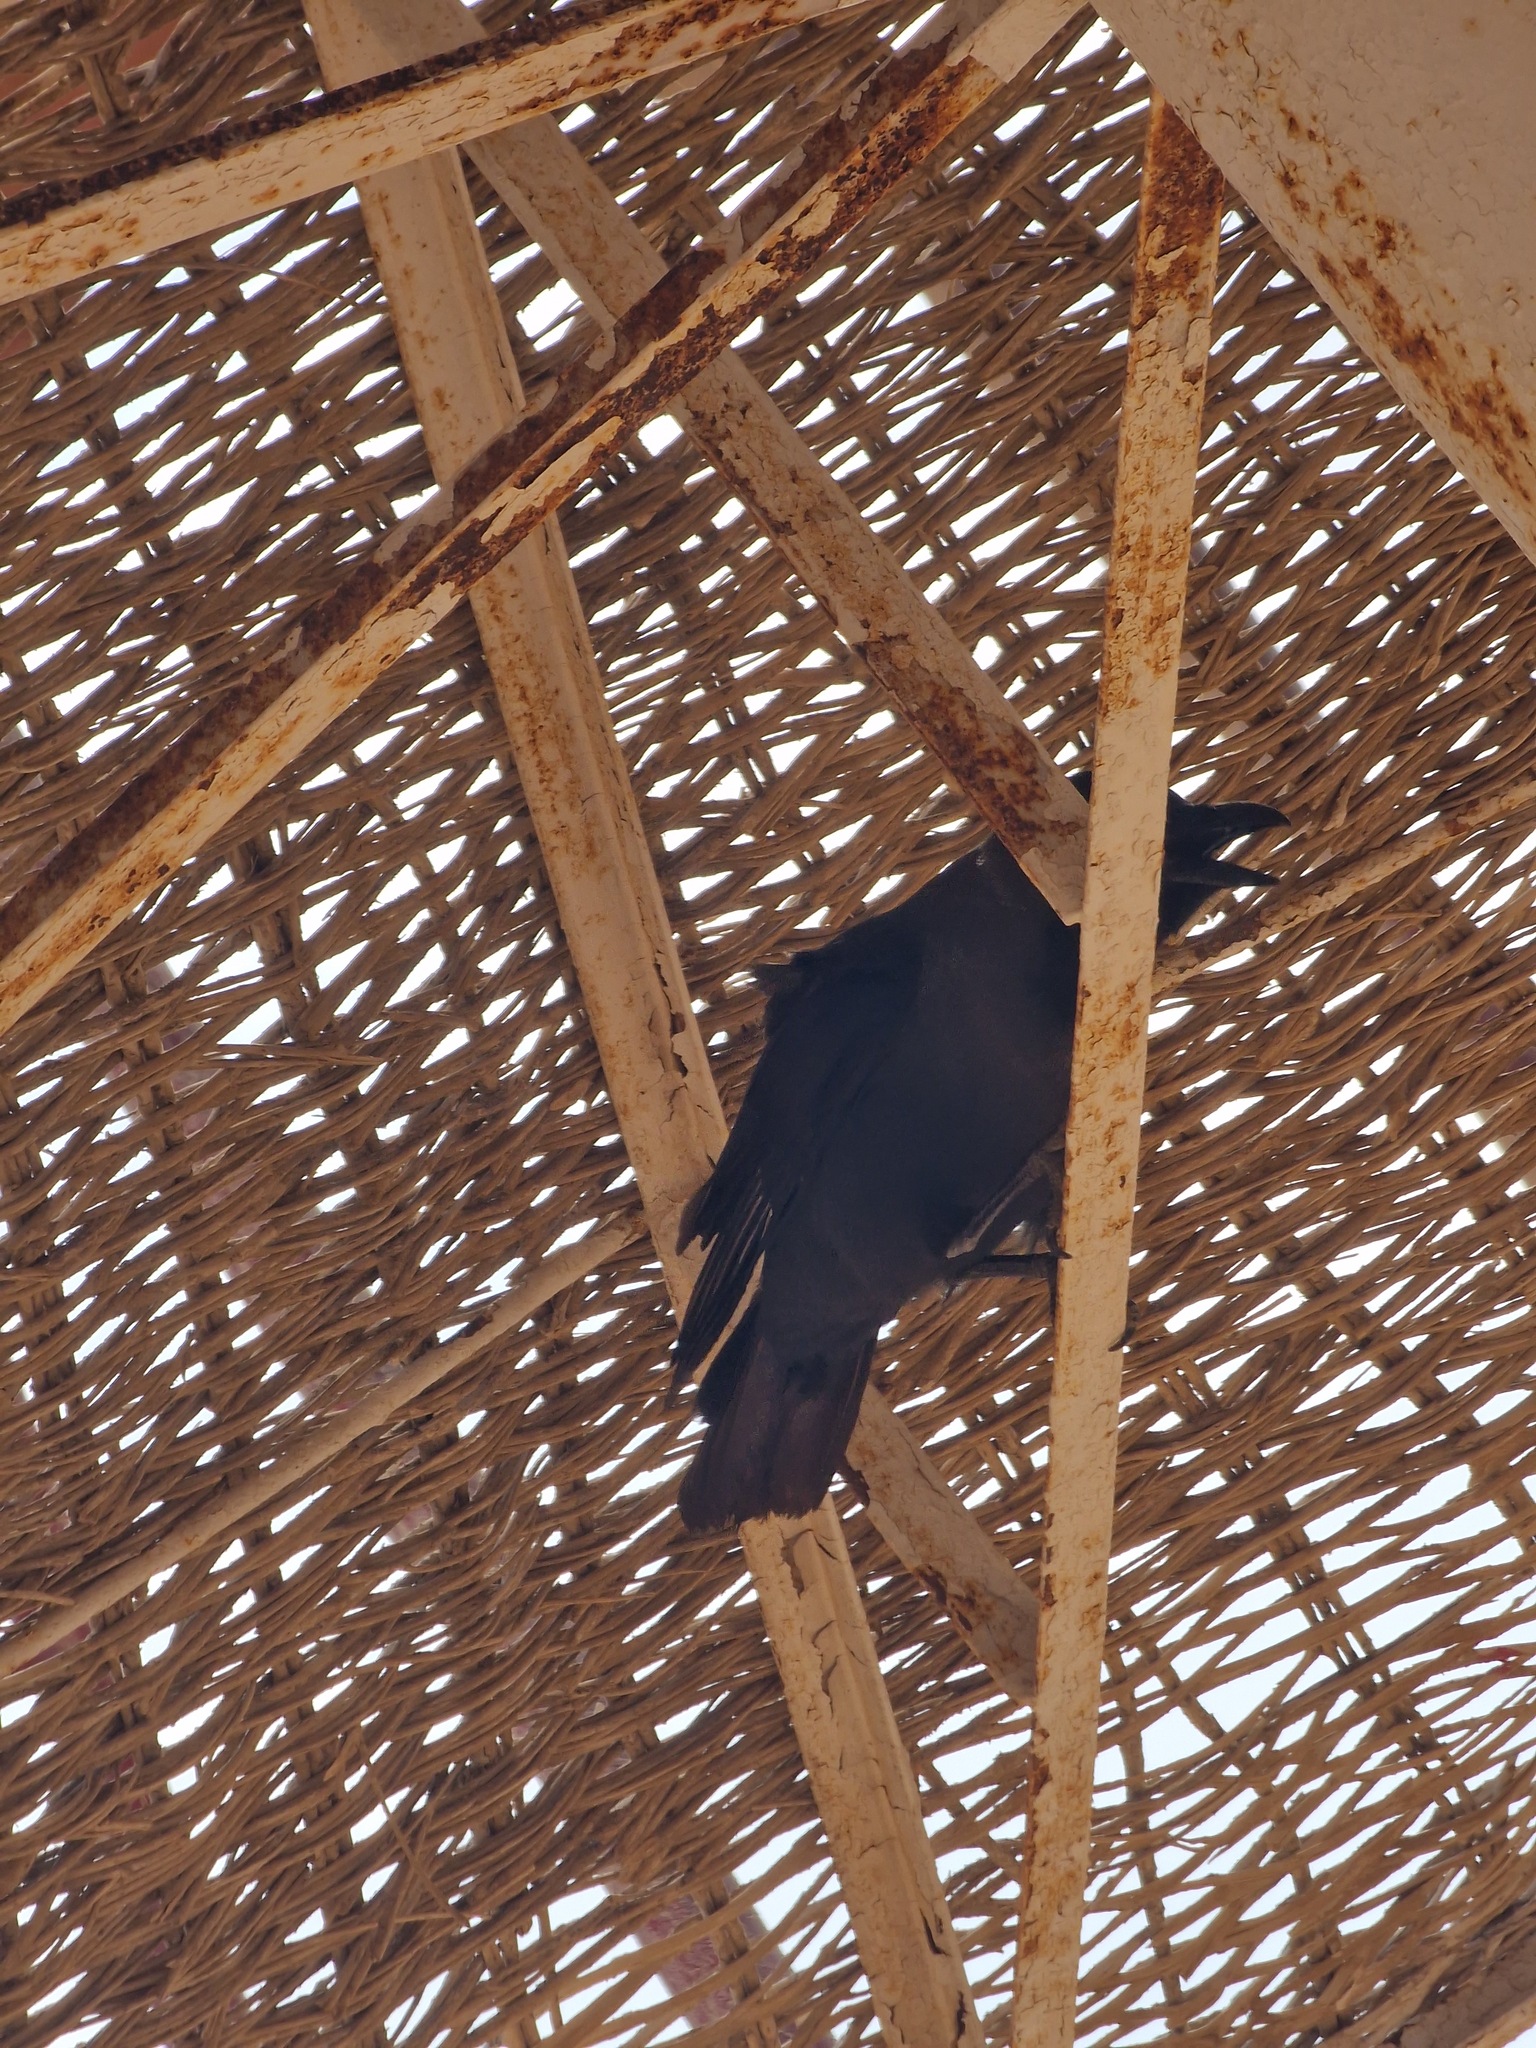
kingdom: Animalia
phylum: Chordata
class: Aves
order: Passeriformes
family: Corvidae
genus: Corvus
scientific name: Corvus splendens
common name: House crow
